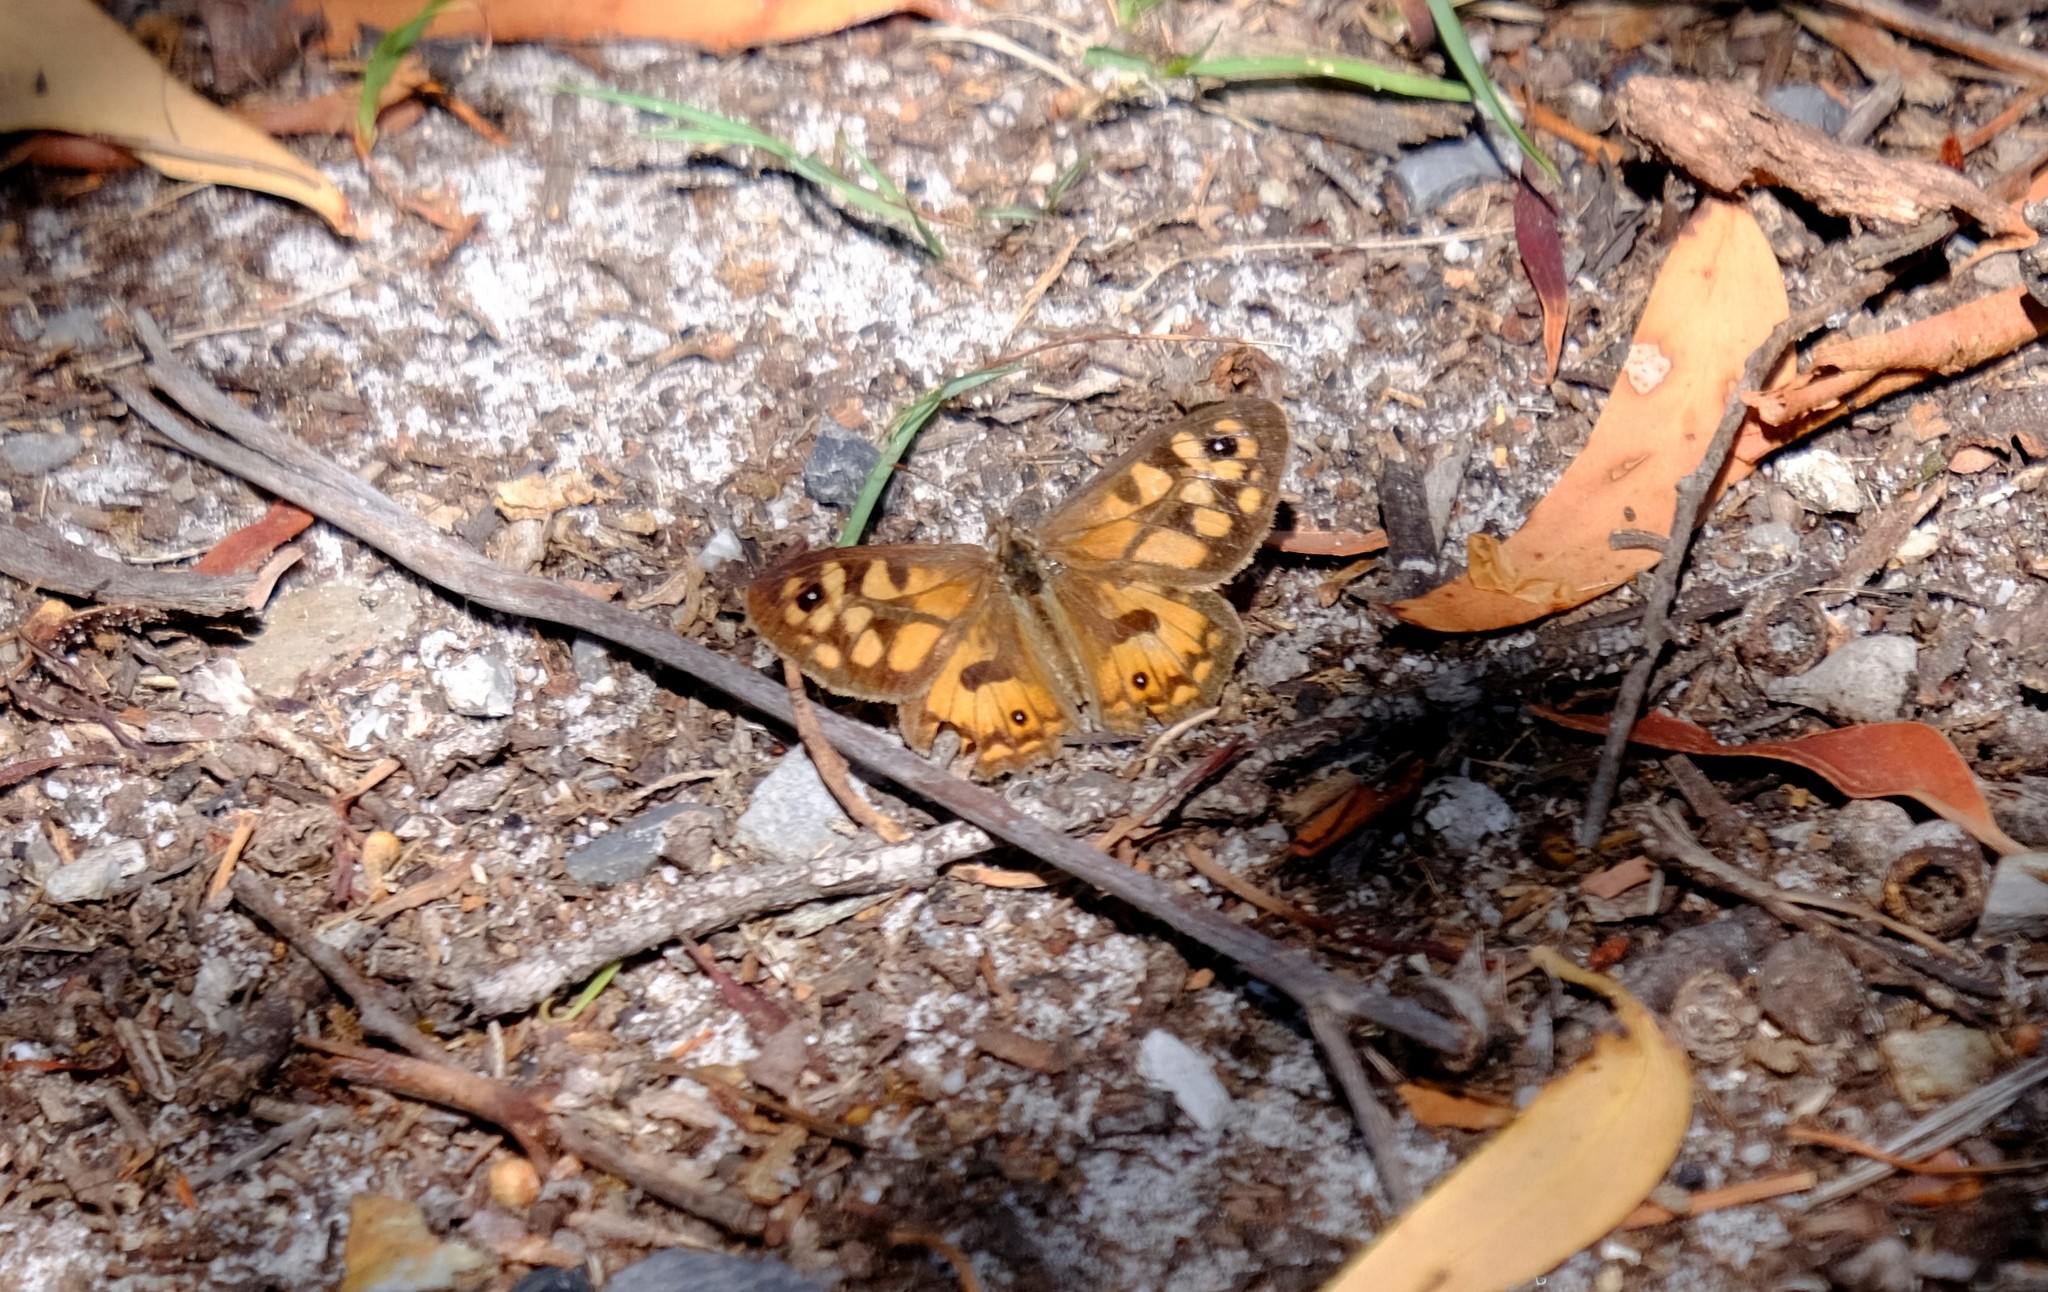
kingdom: Animalia
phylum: Arthropoda
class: Insecta
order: Lepidoptera
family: Nymphalidae
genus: Geitoneura
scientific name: Geitoneura klugii
